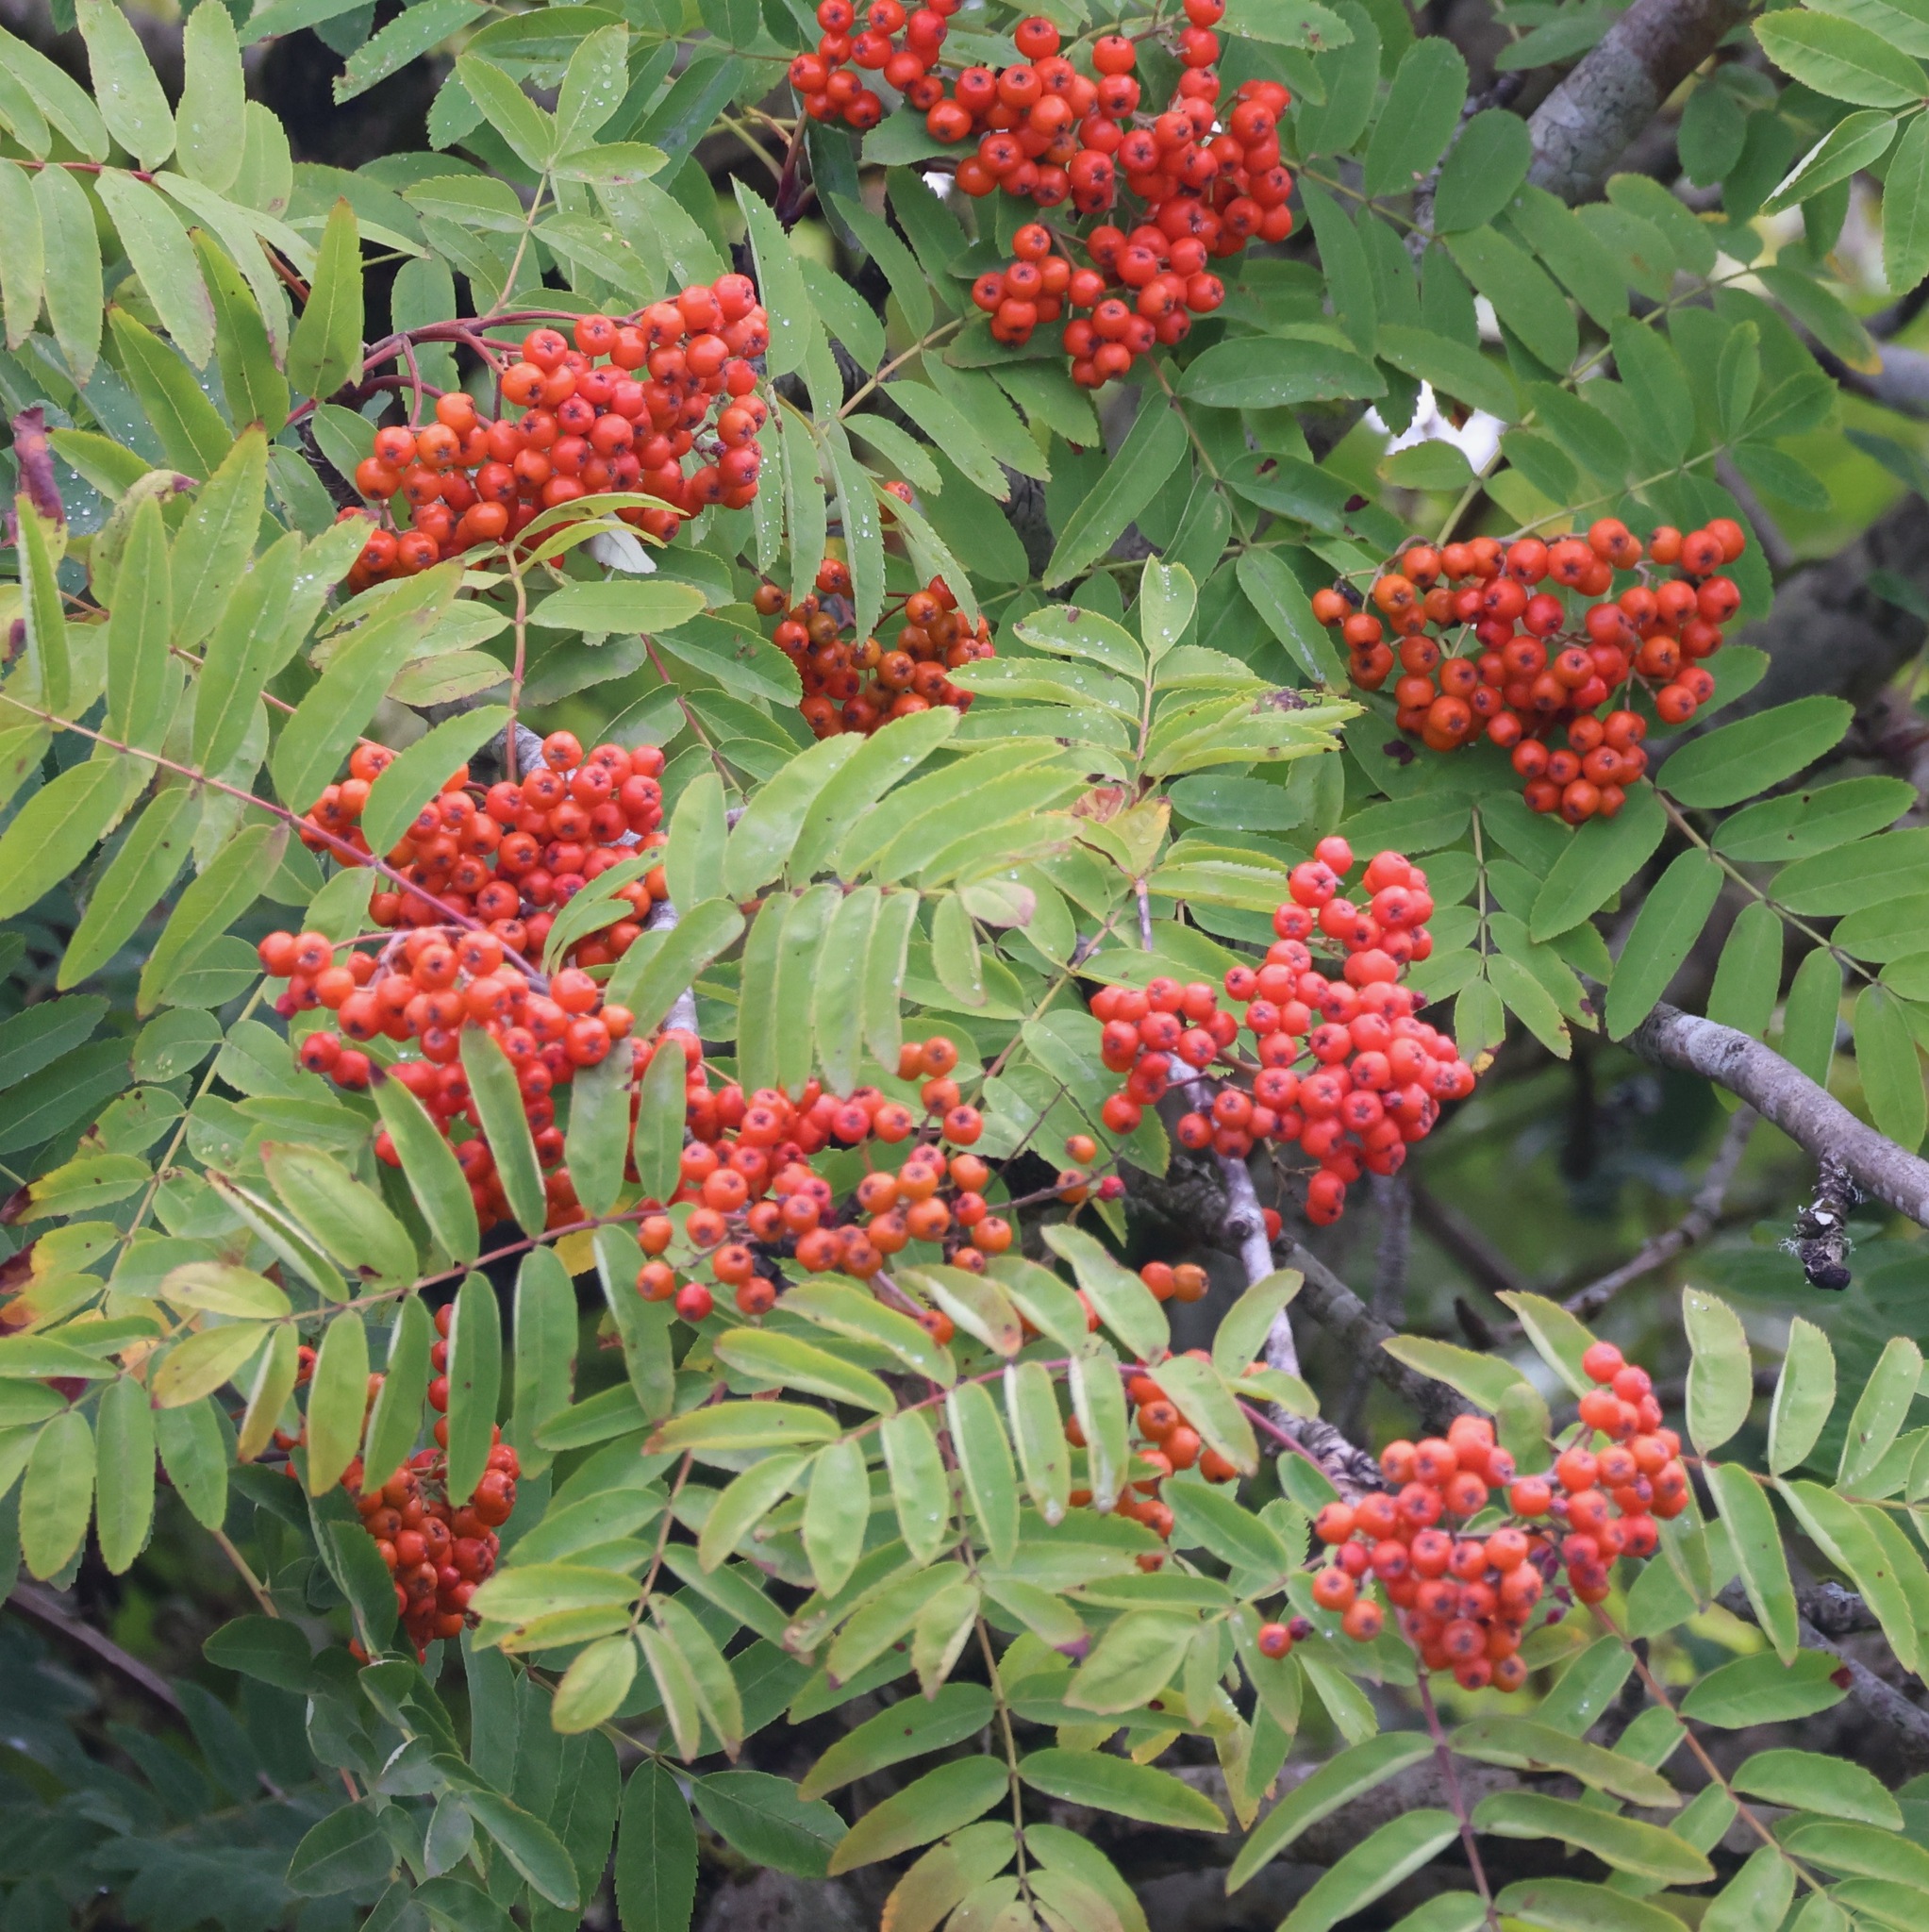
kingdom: Plantae
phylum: Tracheophyta
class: Magnoliopsida
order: Rosales
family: Rosaceae
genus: Sorbus
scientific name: Sorbus aucuparia
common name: Rowan
